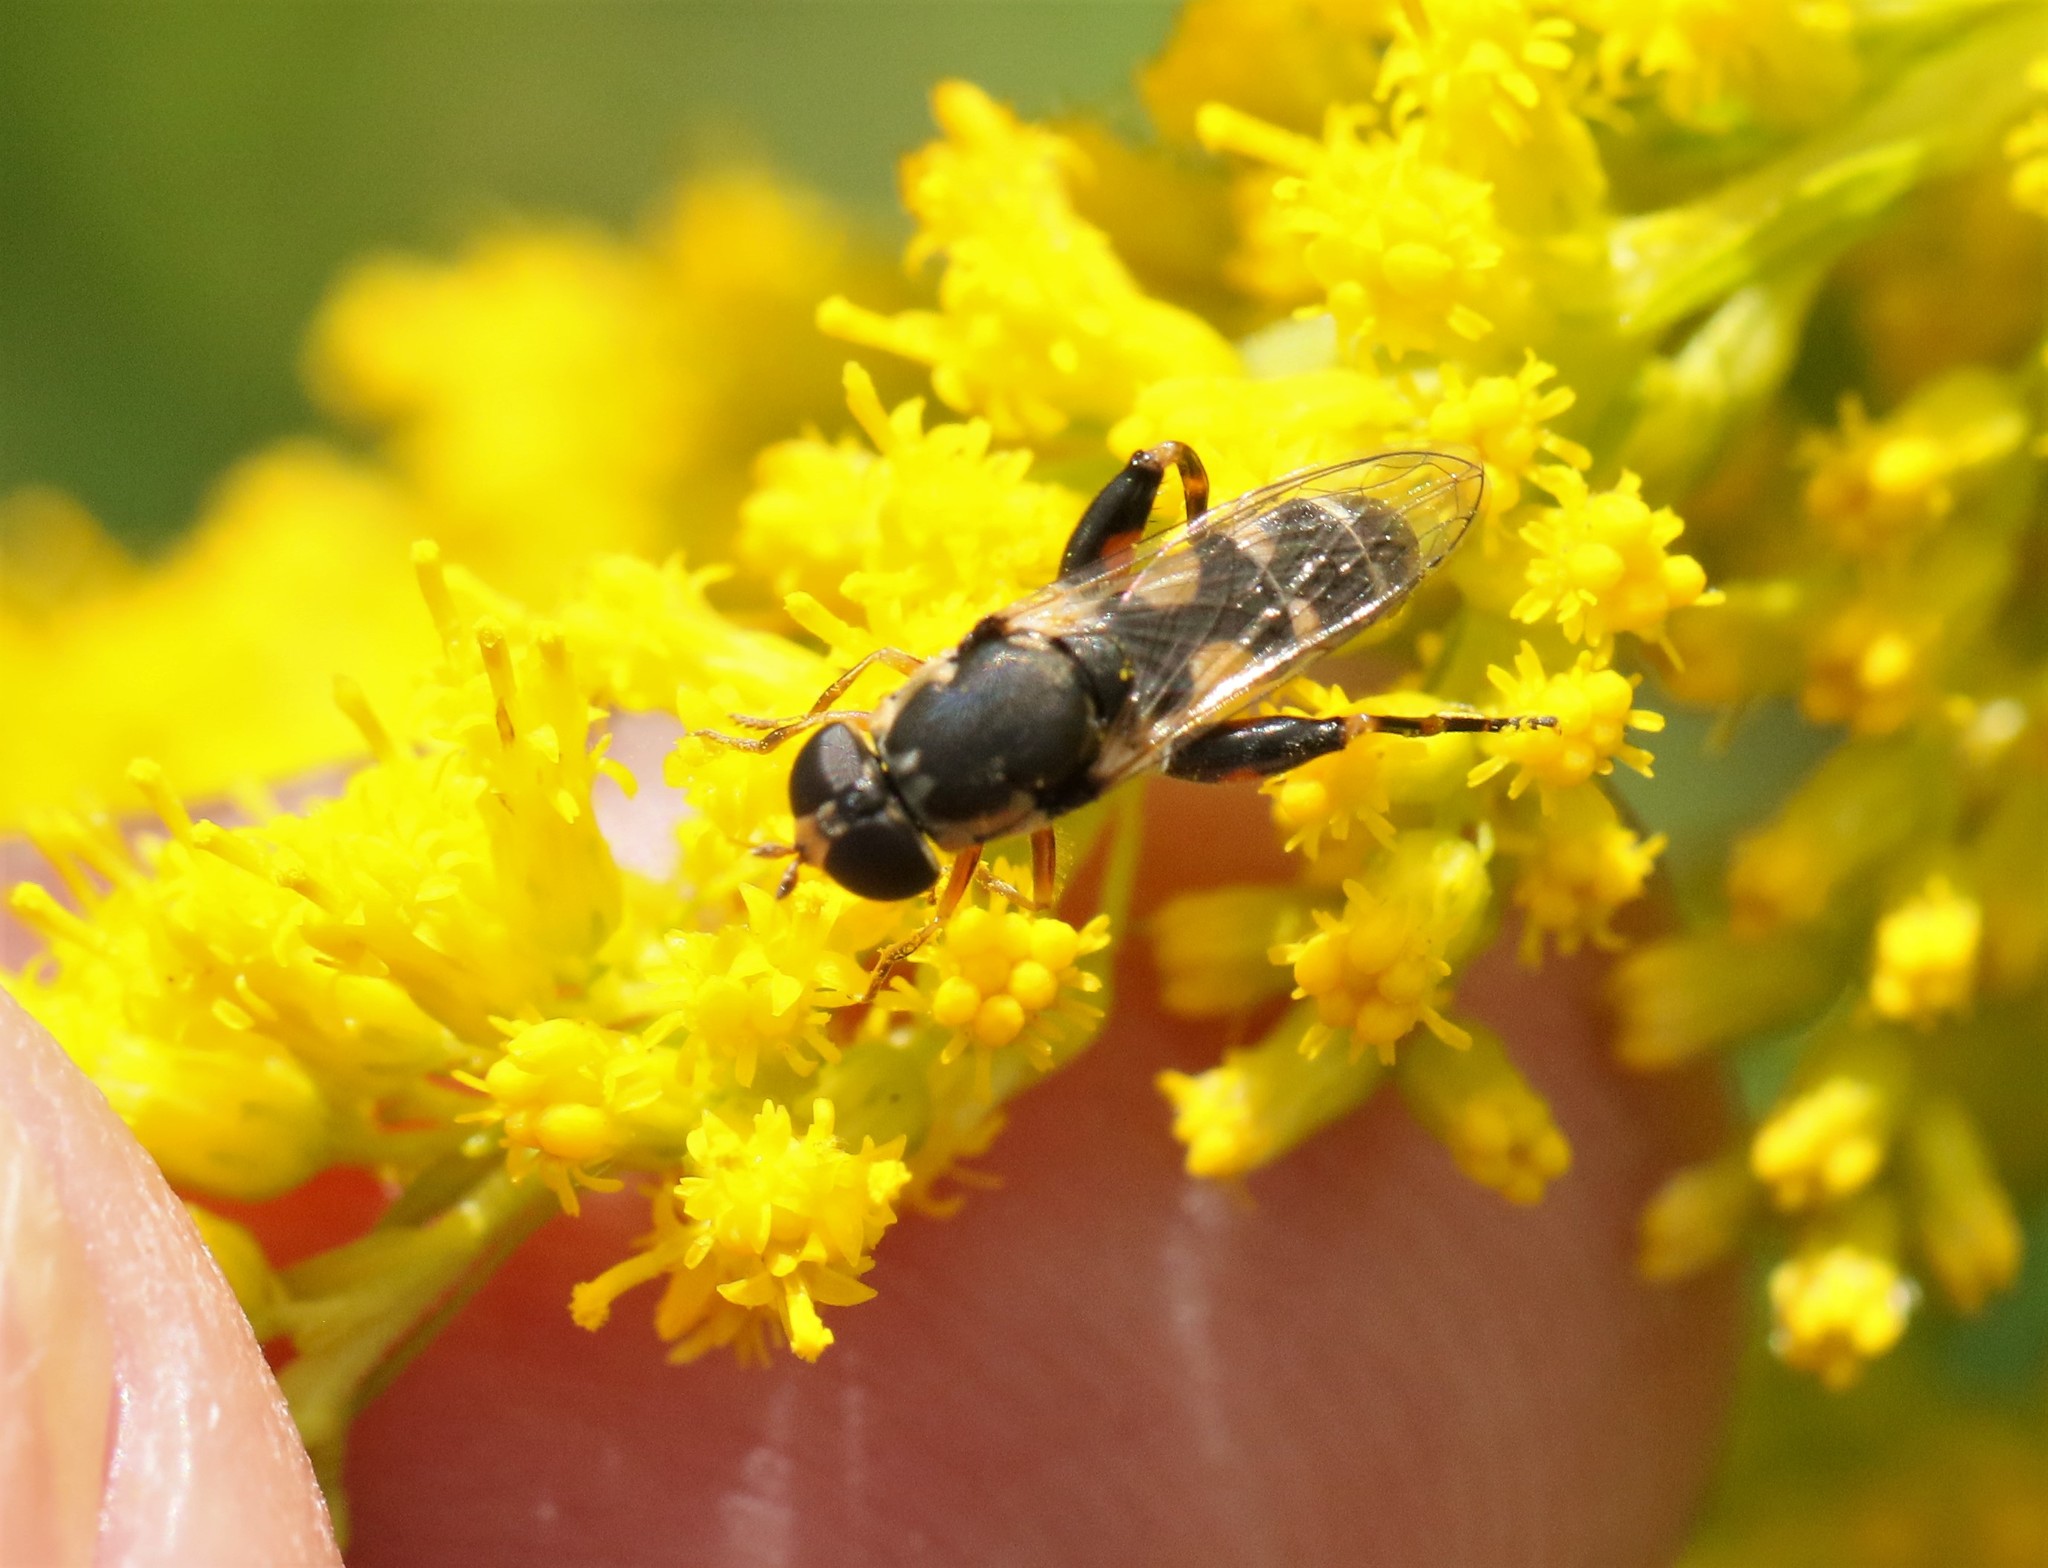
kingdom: Animalia
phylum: Arthropoda
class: Insecta
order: Diptera
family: Syrphidae
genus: Syritta
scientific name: Syritta pipiens
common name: Hover fly
